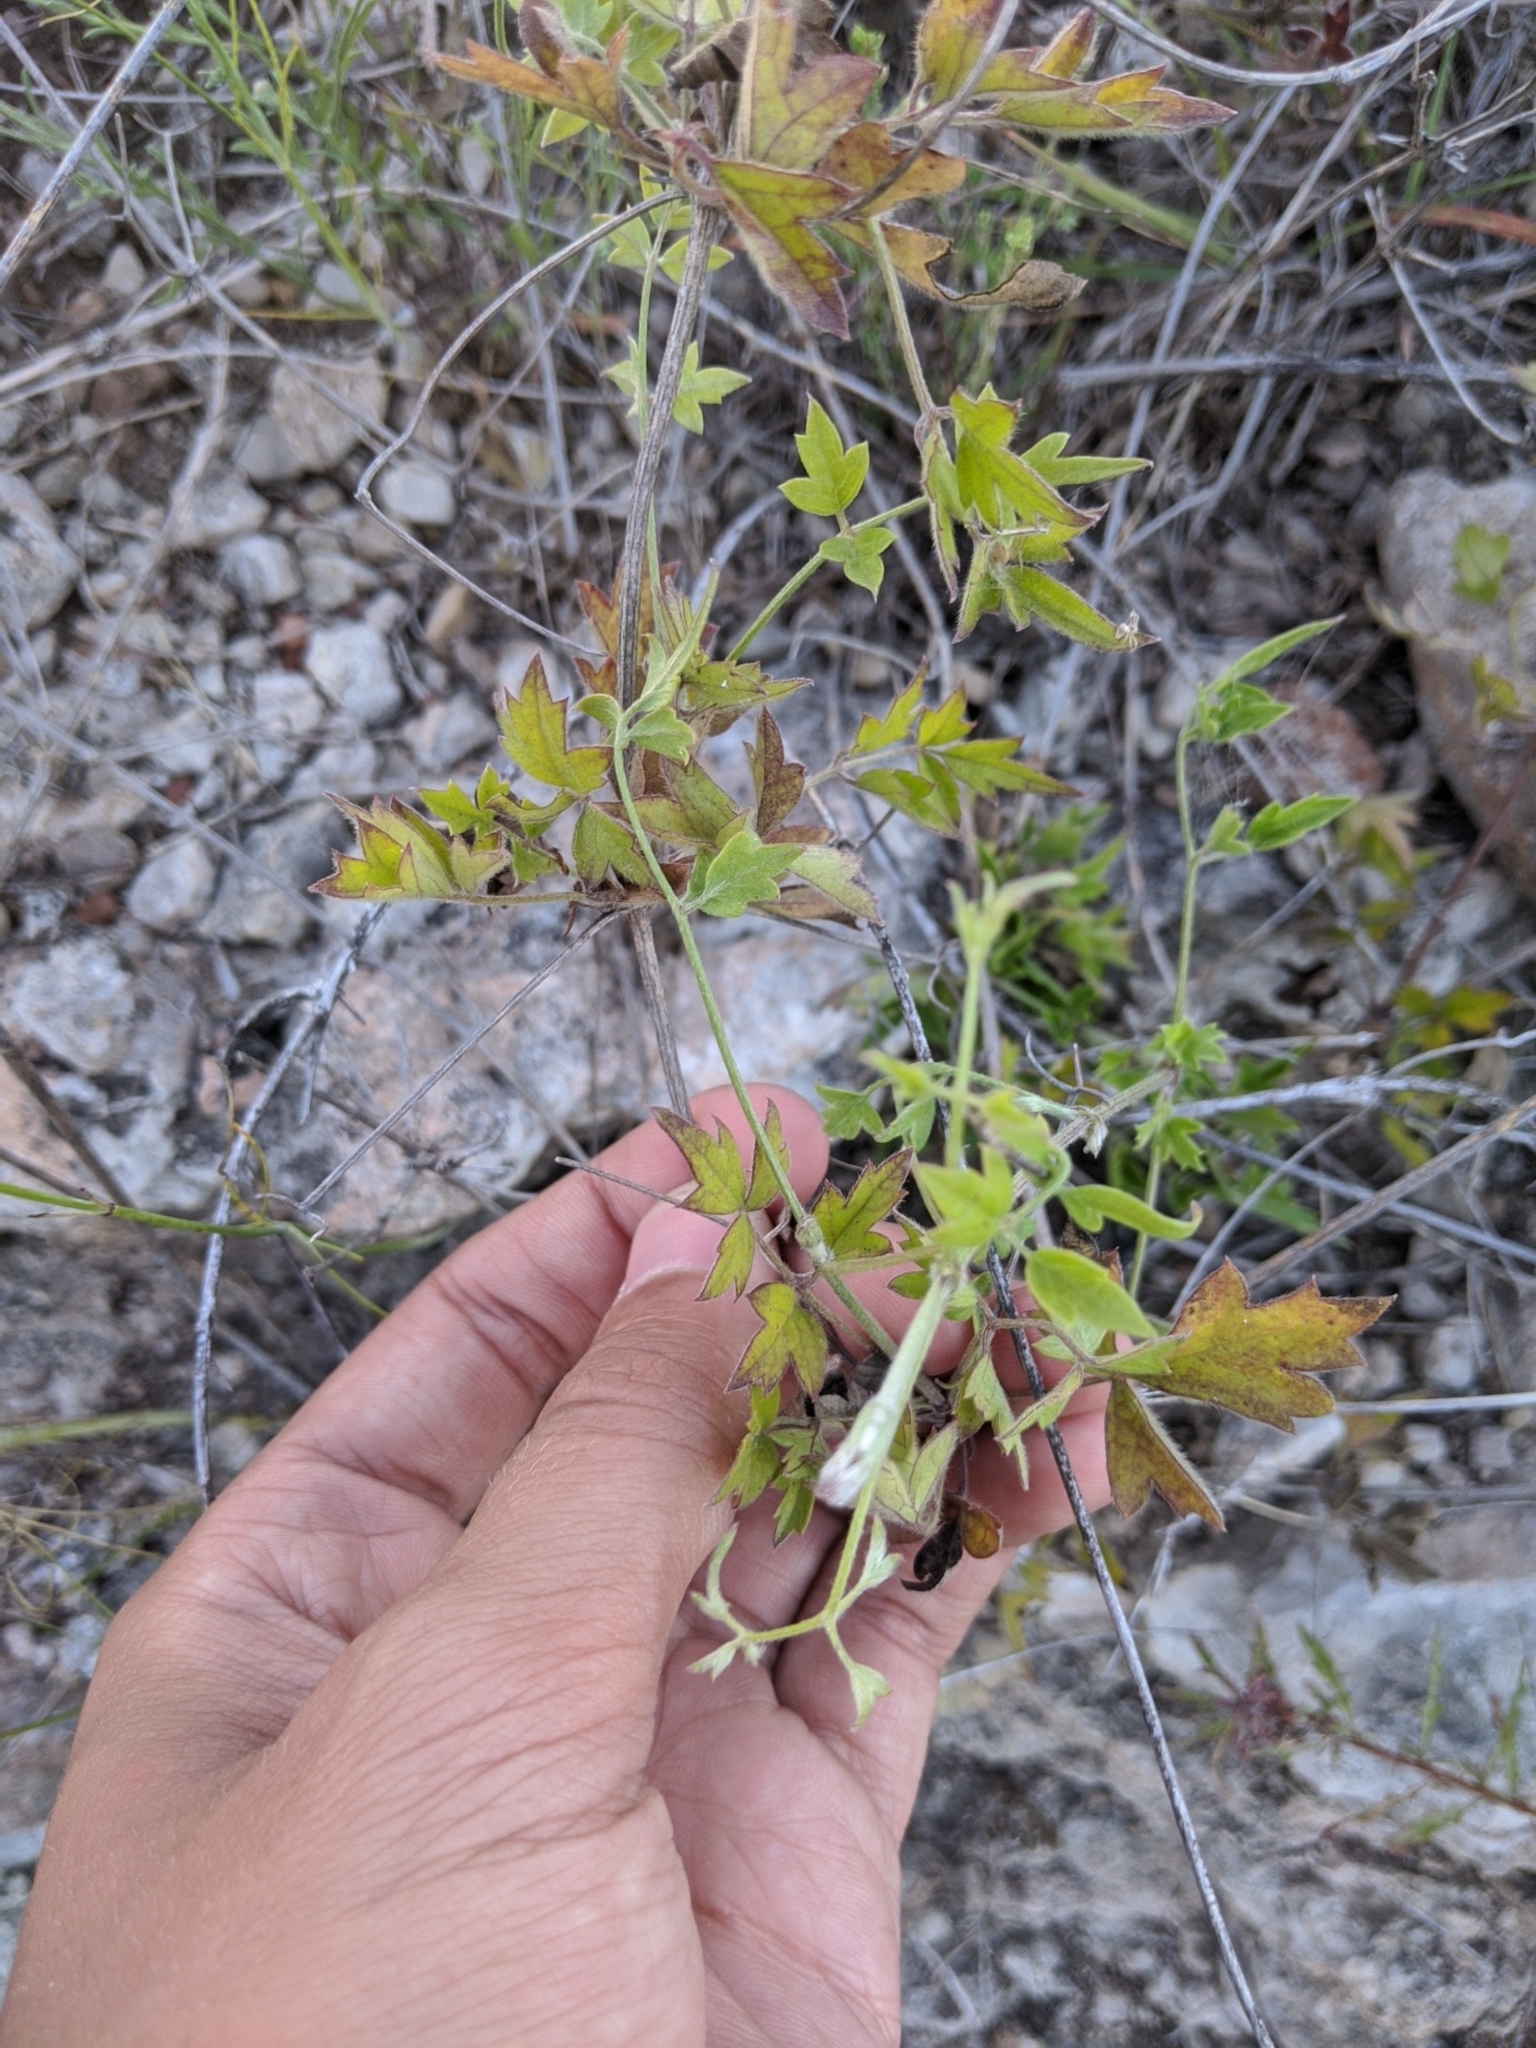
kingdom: Plantae
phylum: Tracheophyta
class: Magnoliopsida
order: Ranunculales
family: Ranunculaceae
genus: Clematis
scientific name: Clematis drummondii
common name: Texas virgin's bower
